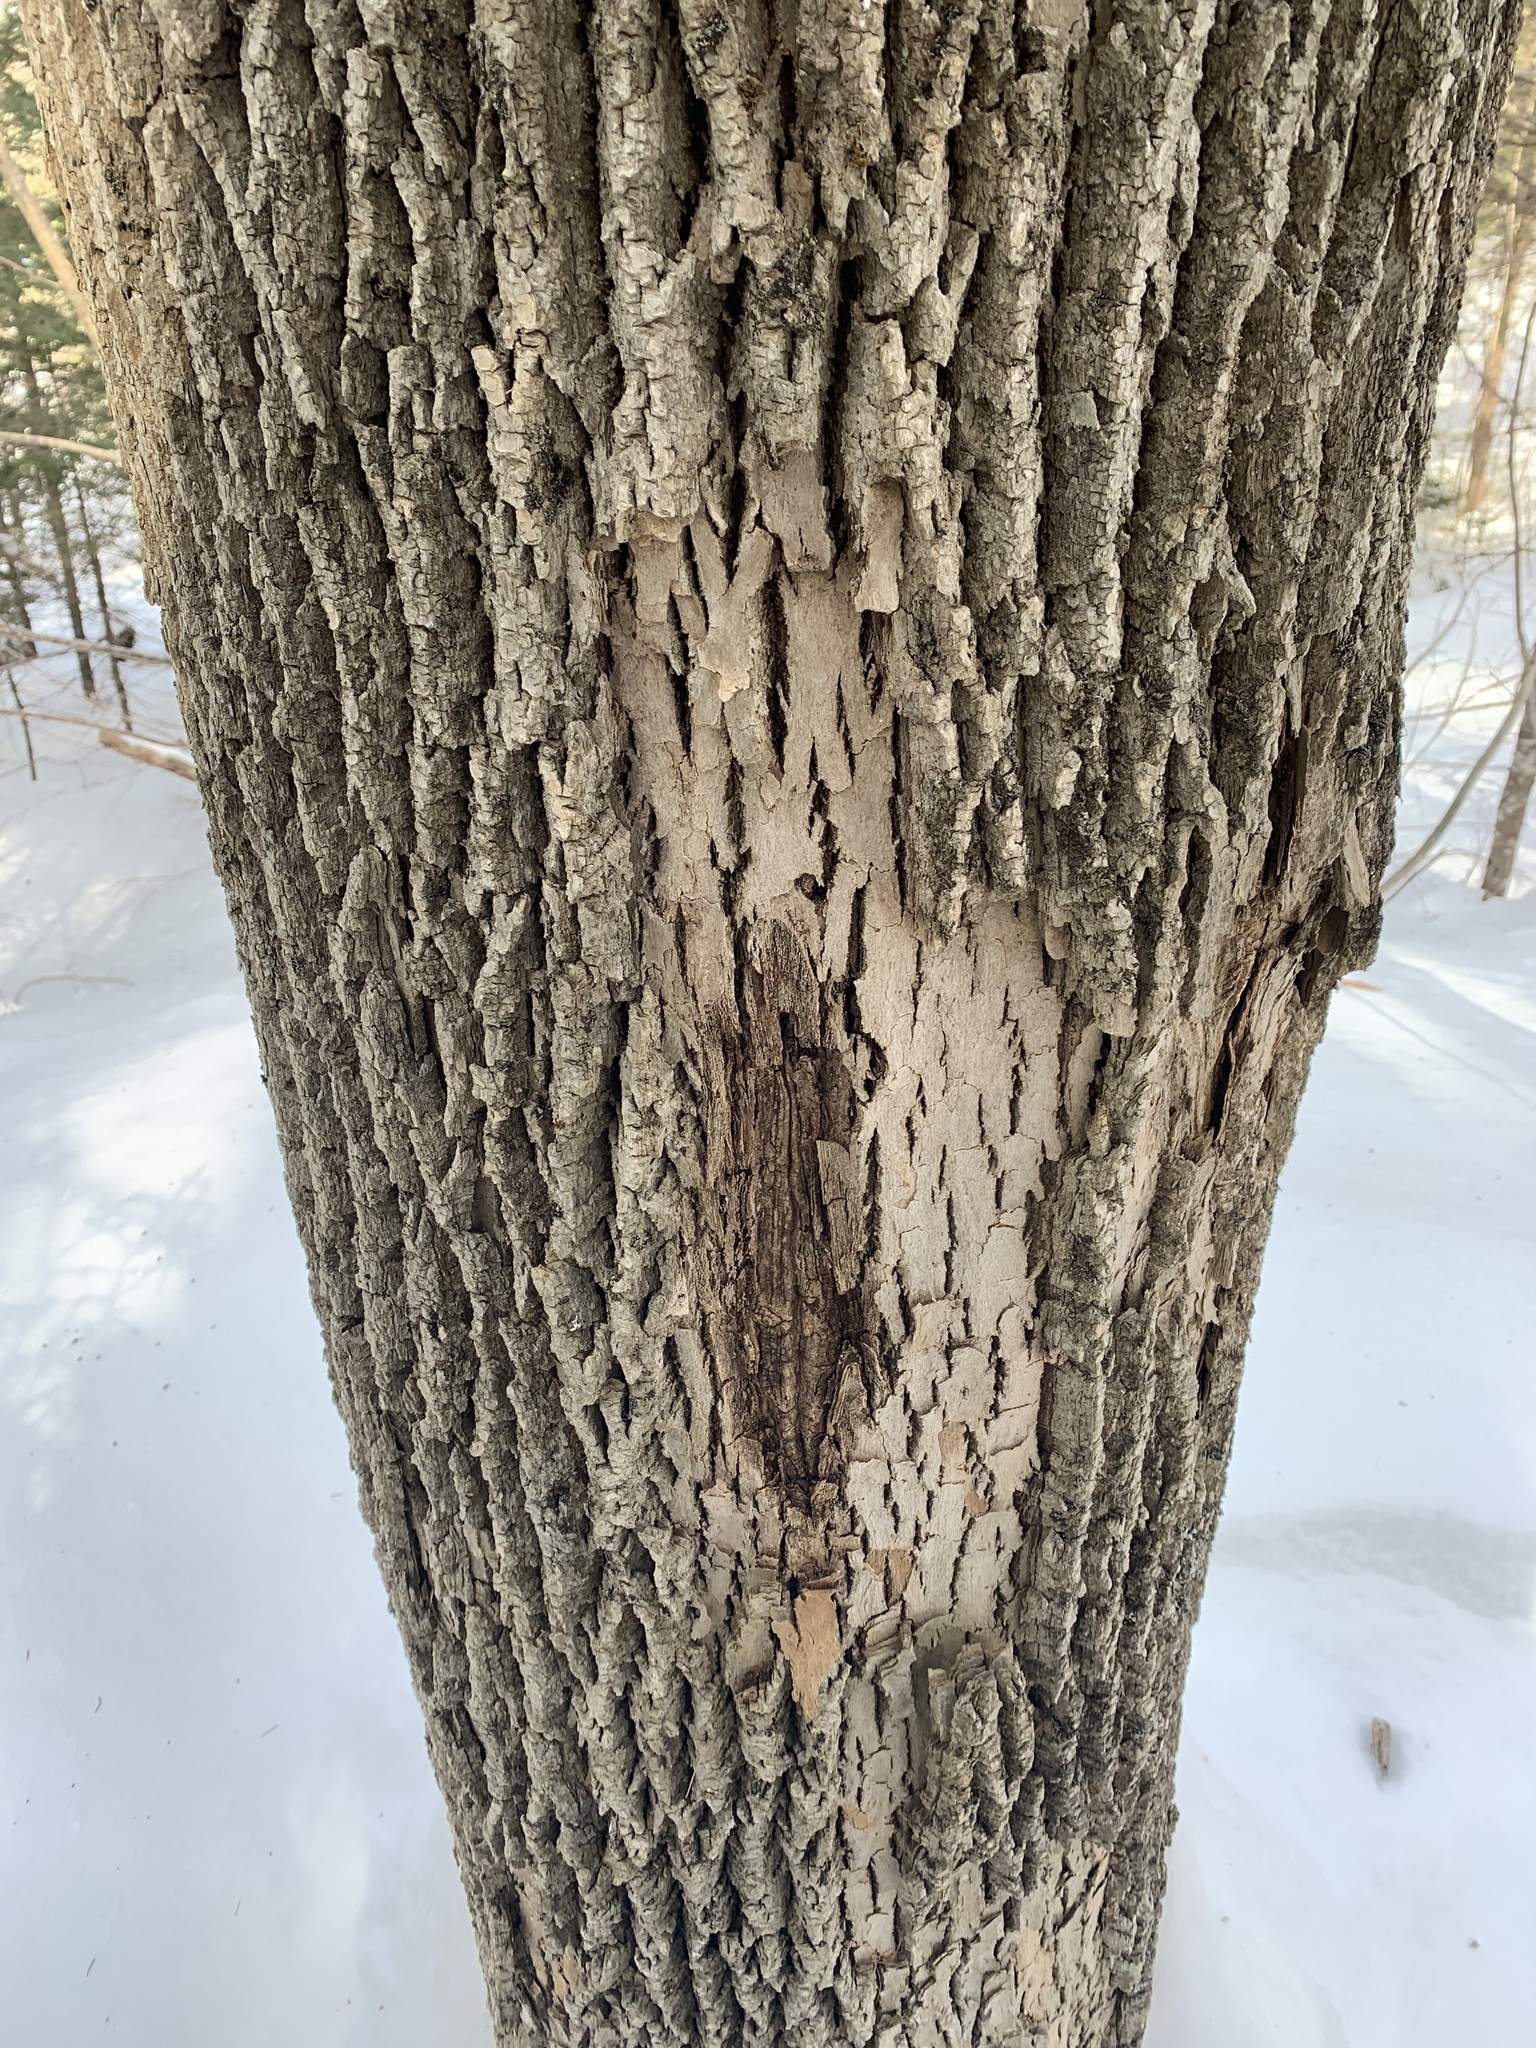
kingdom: Plantae
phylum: Tracheophyta
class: Magnoliopsida
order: Lamiales
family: Oleaceae
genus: Fraxinus
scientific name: Fraxinus americana
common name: White ash
